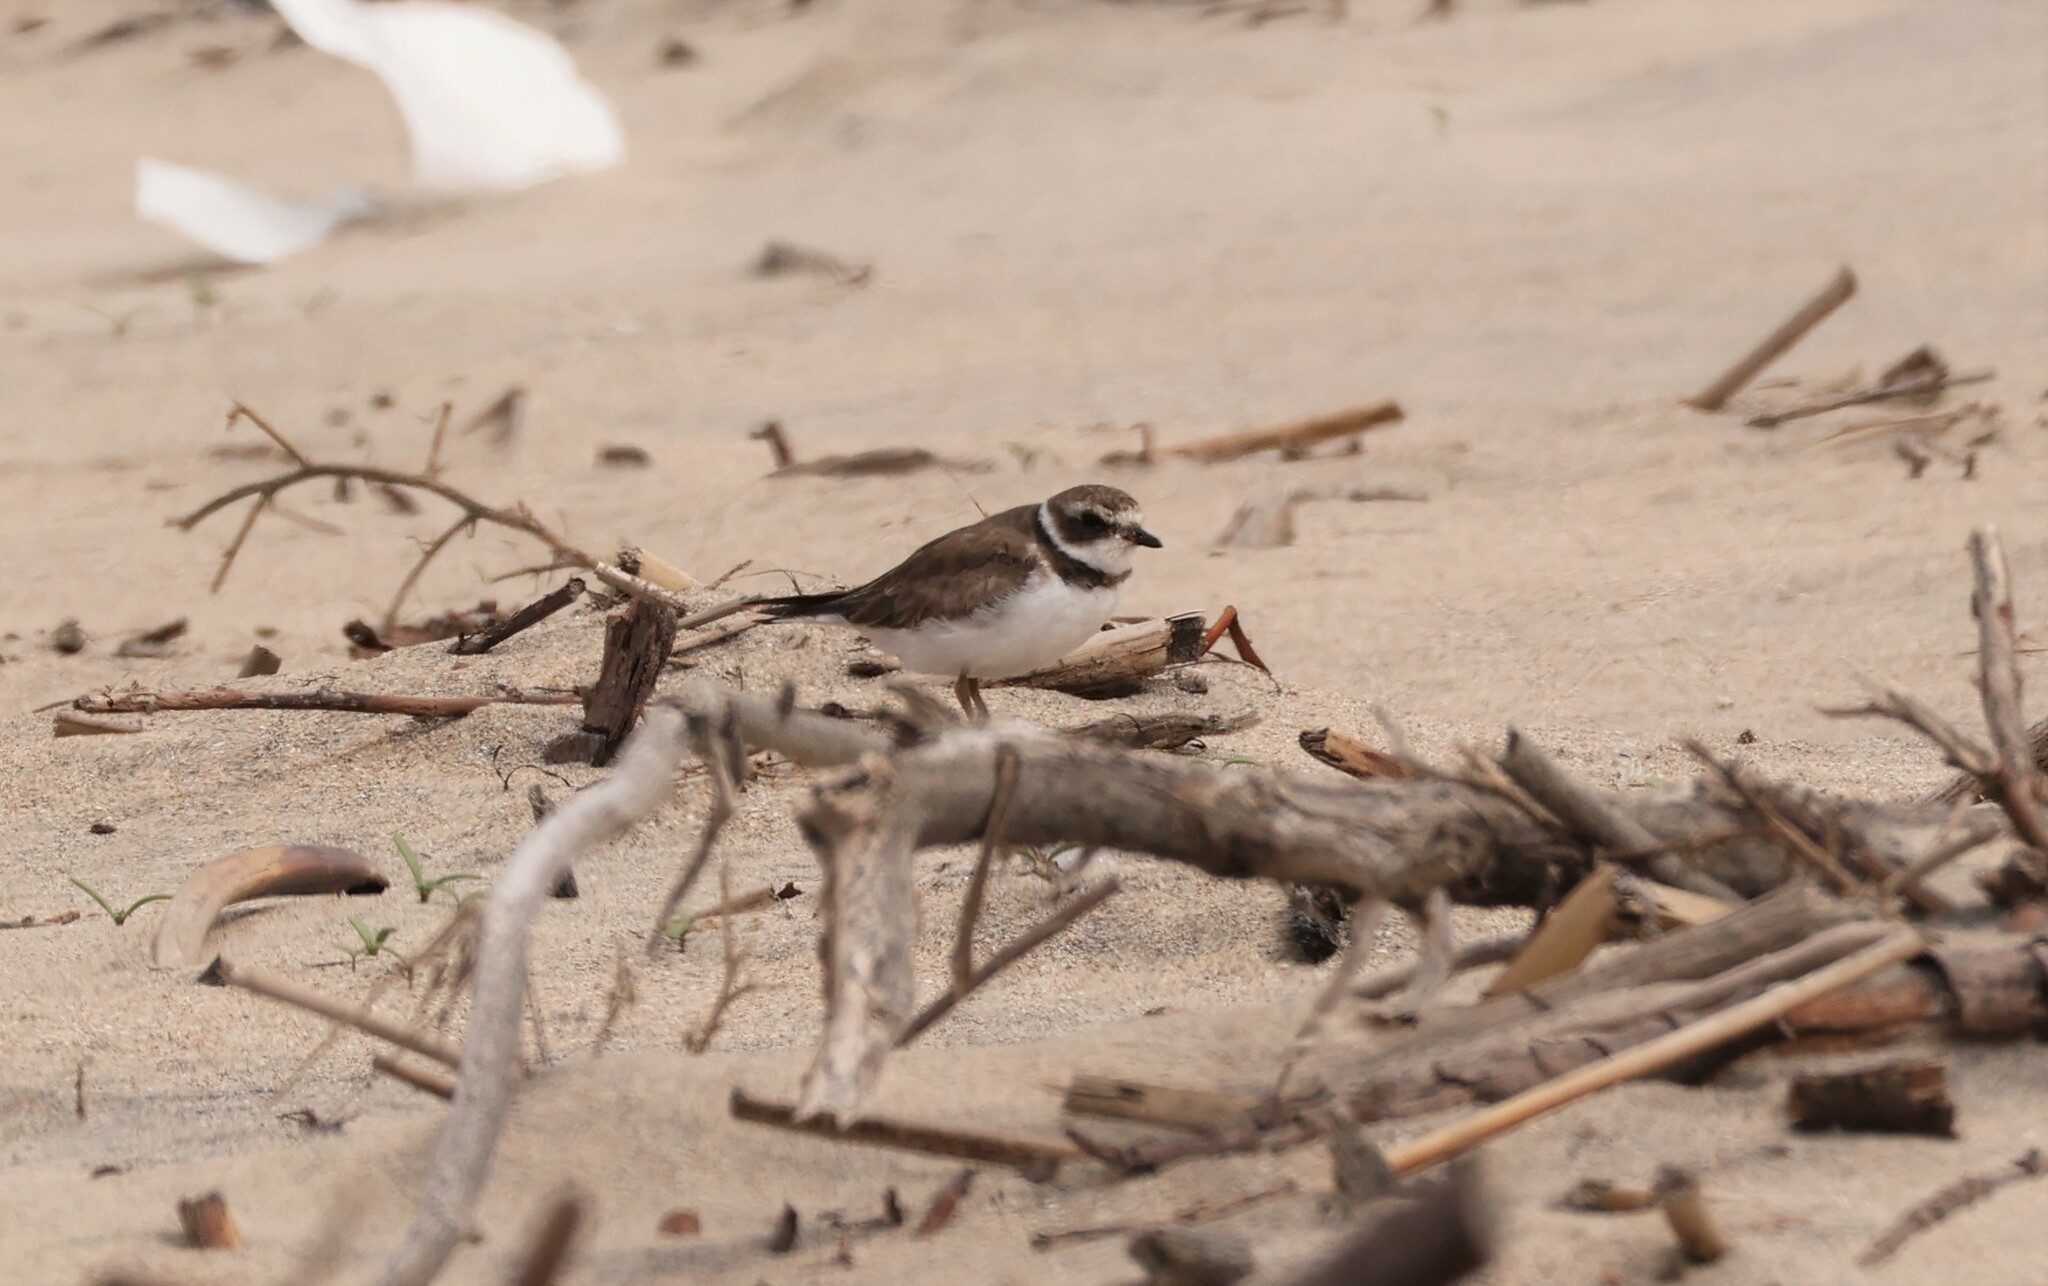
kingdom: Animalia
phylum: Chordata
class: Aves
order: Charadriiformes
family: Charadriidae
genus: Charadrius
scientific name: Charadrius semipalmatus
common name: Semipalmated plover
